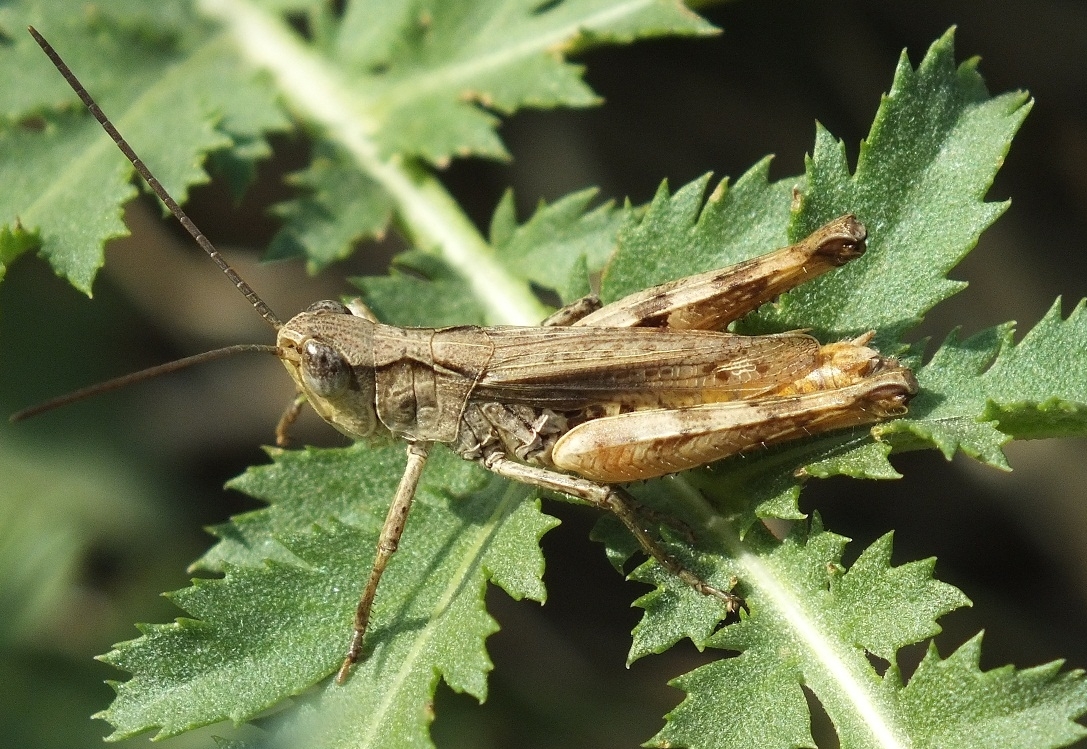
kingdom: Animalia
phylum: Arthropoda
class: Insecta
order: Orthoptera
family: Acrididae
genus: Chorthippus
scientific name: Chorthippus macrocerus
